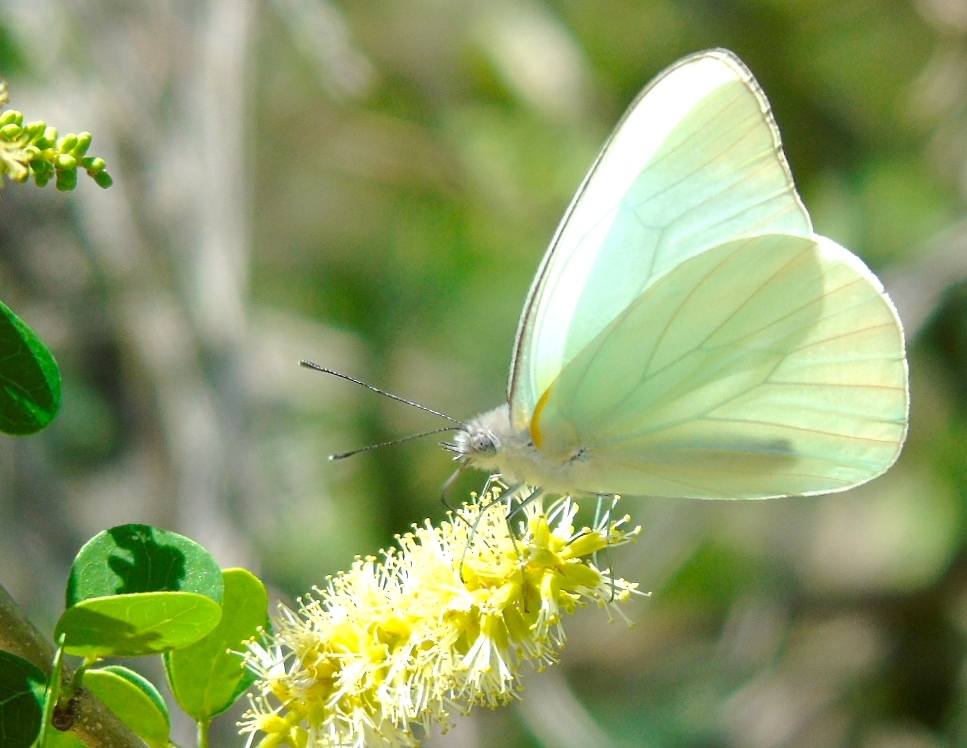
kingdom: Animalia
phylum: Arthropoda
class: Insecta
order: Lepidoptera
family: Pieridae
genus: Glutophrissa
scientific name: Glutophrissa drusilla
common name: Florida white
